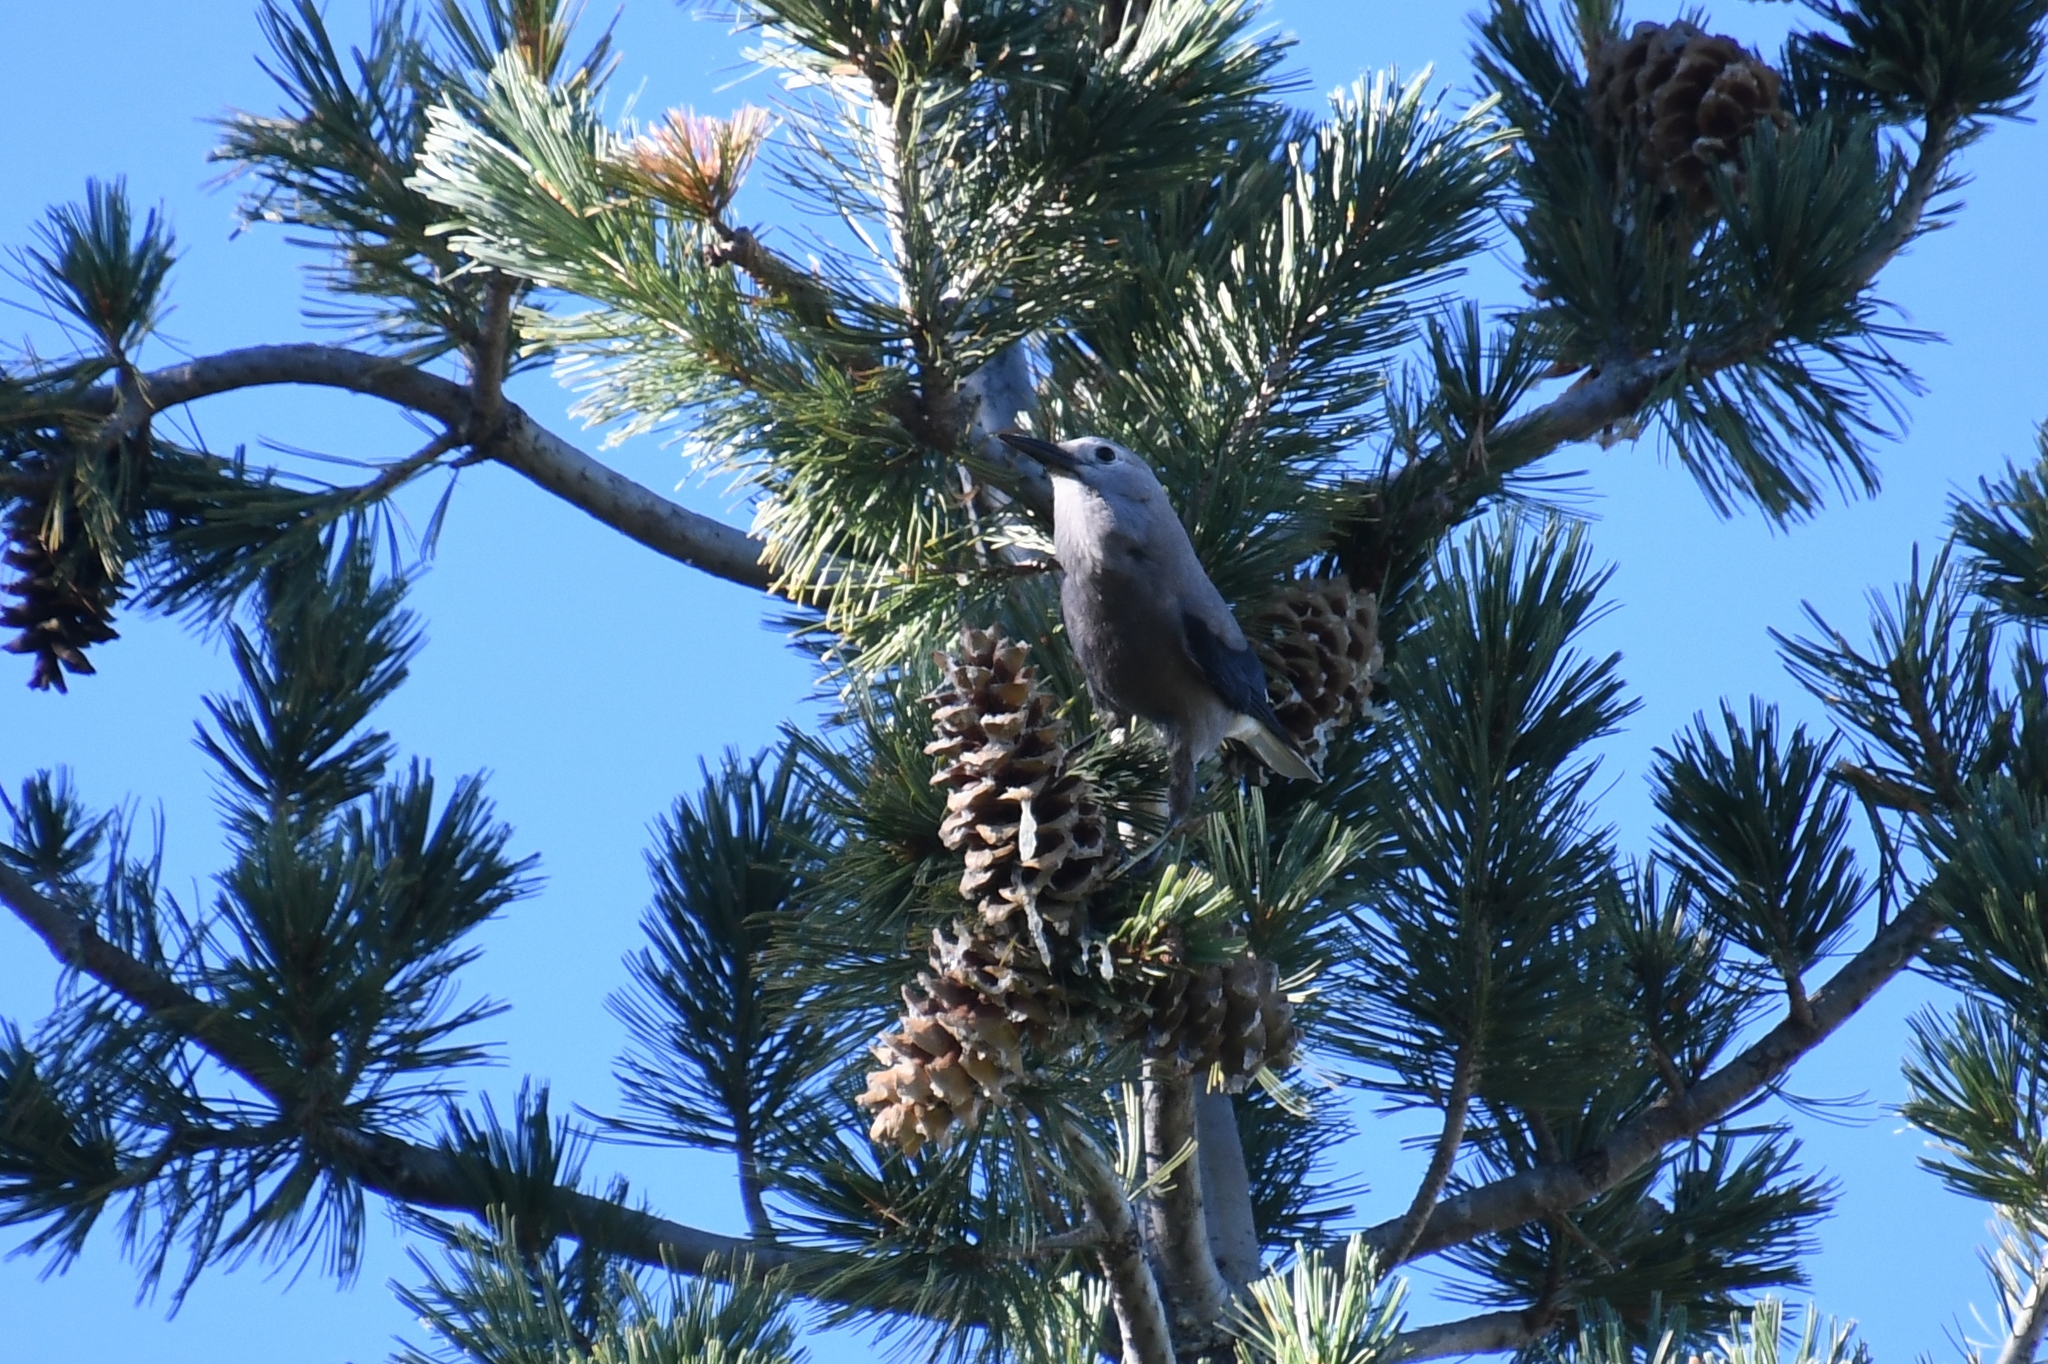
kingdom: Animalia
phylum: Chordata
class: Aves
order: Passeriformes
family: Corvidae
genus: Nucifraga
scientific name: Nucifraga columbiana
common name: Clark's nutcracker
